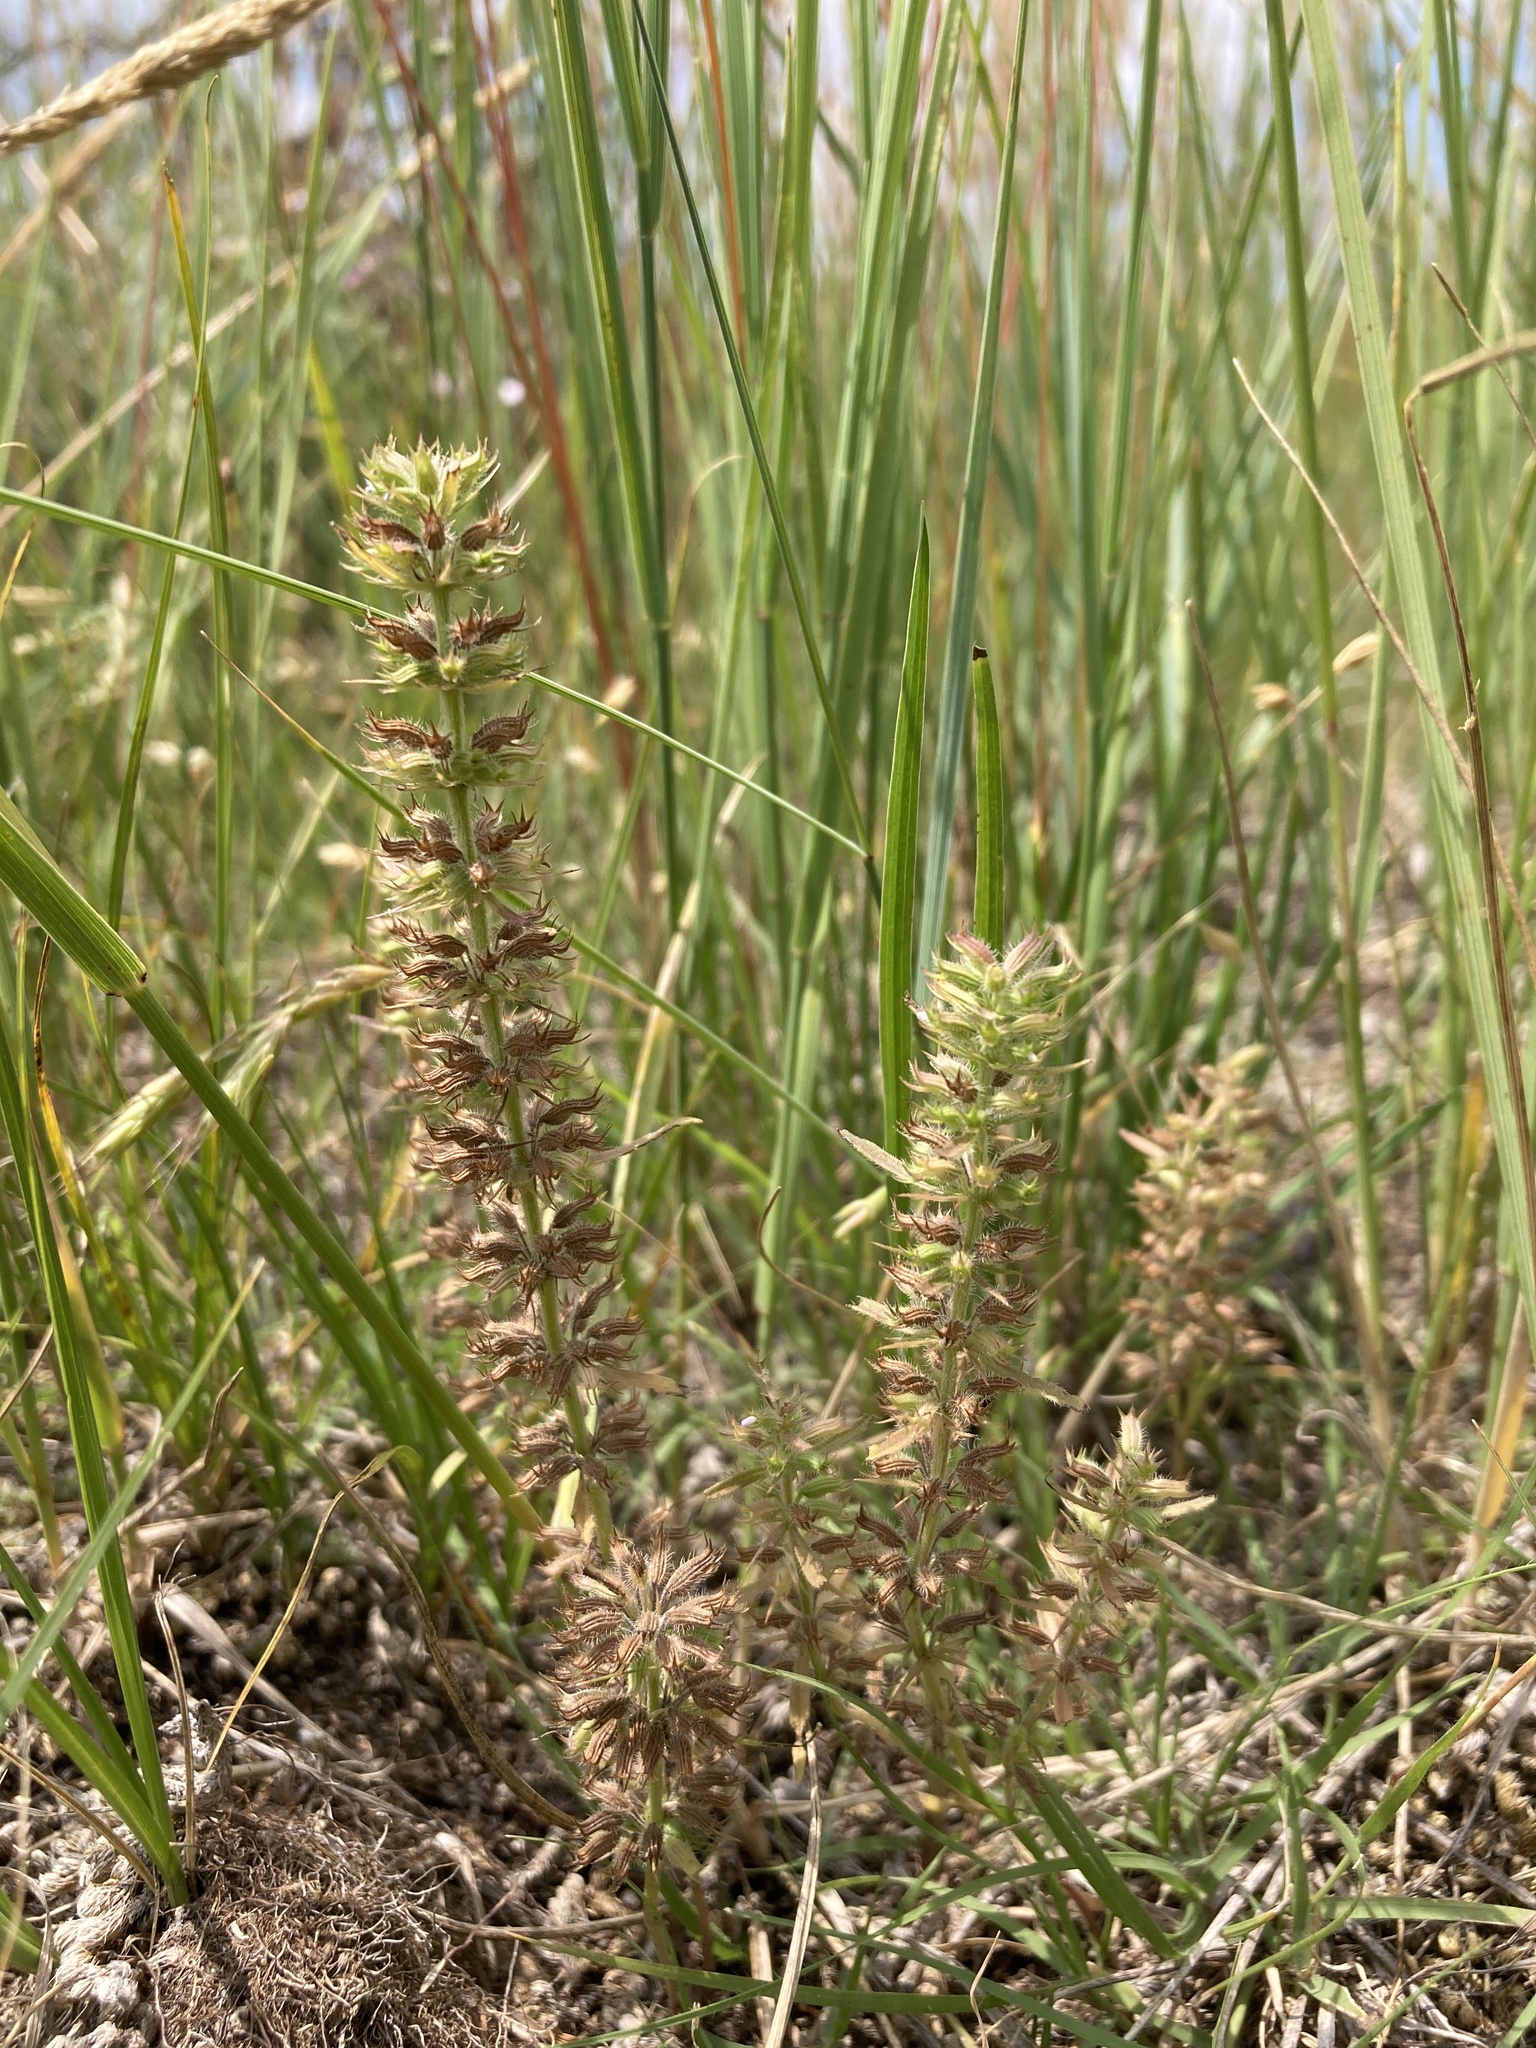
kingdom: Plantae
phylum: Tracheophyta
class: Magnoliopsida
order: Lamiales
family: Lamiaceae
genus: Hedeoma
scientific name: Hedeoma hispida
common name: Mock pennyroyal
